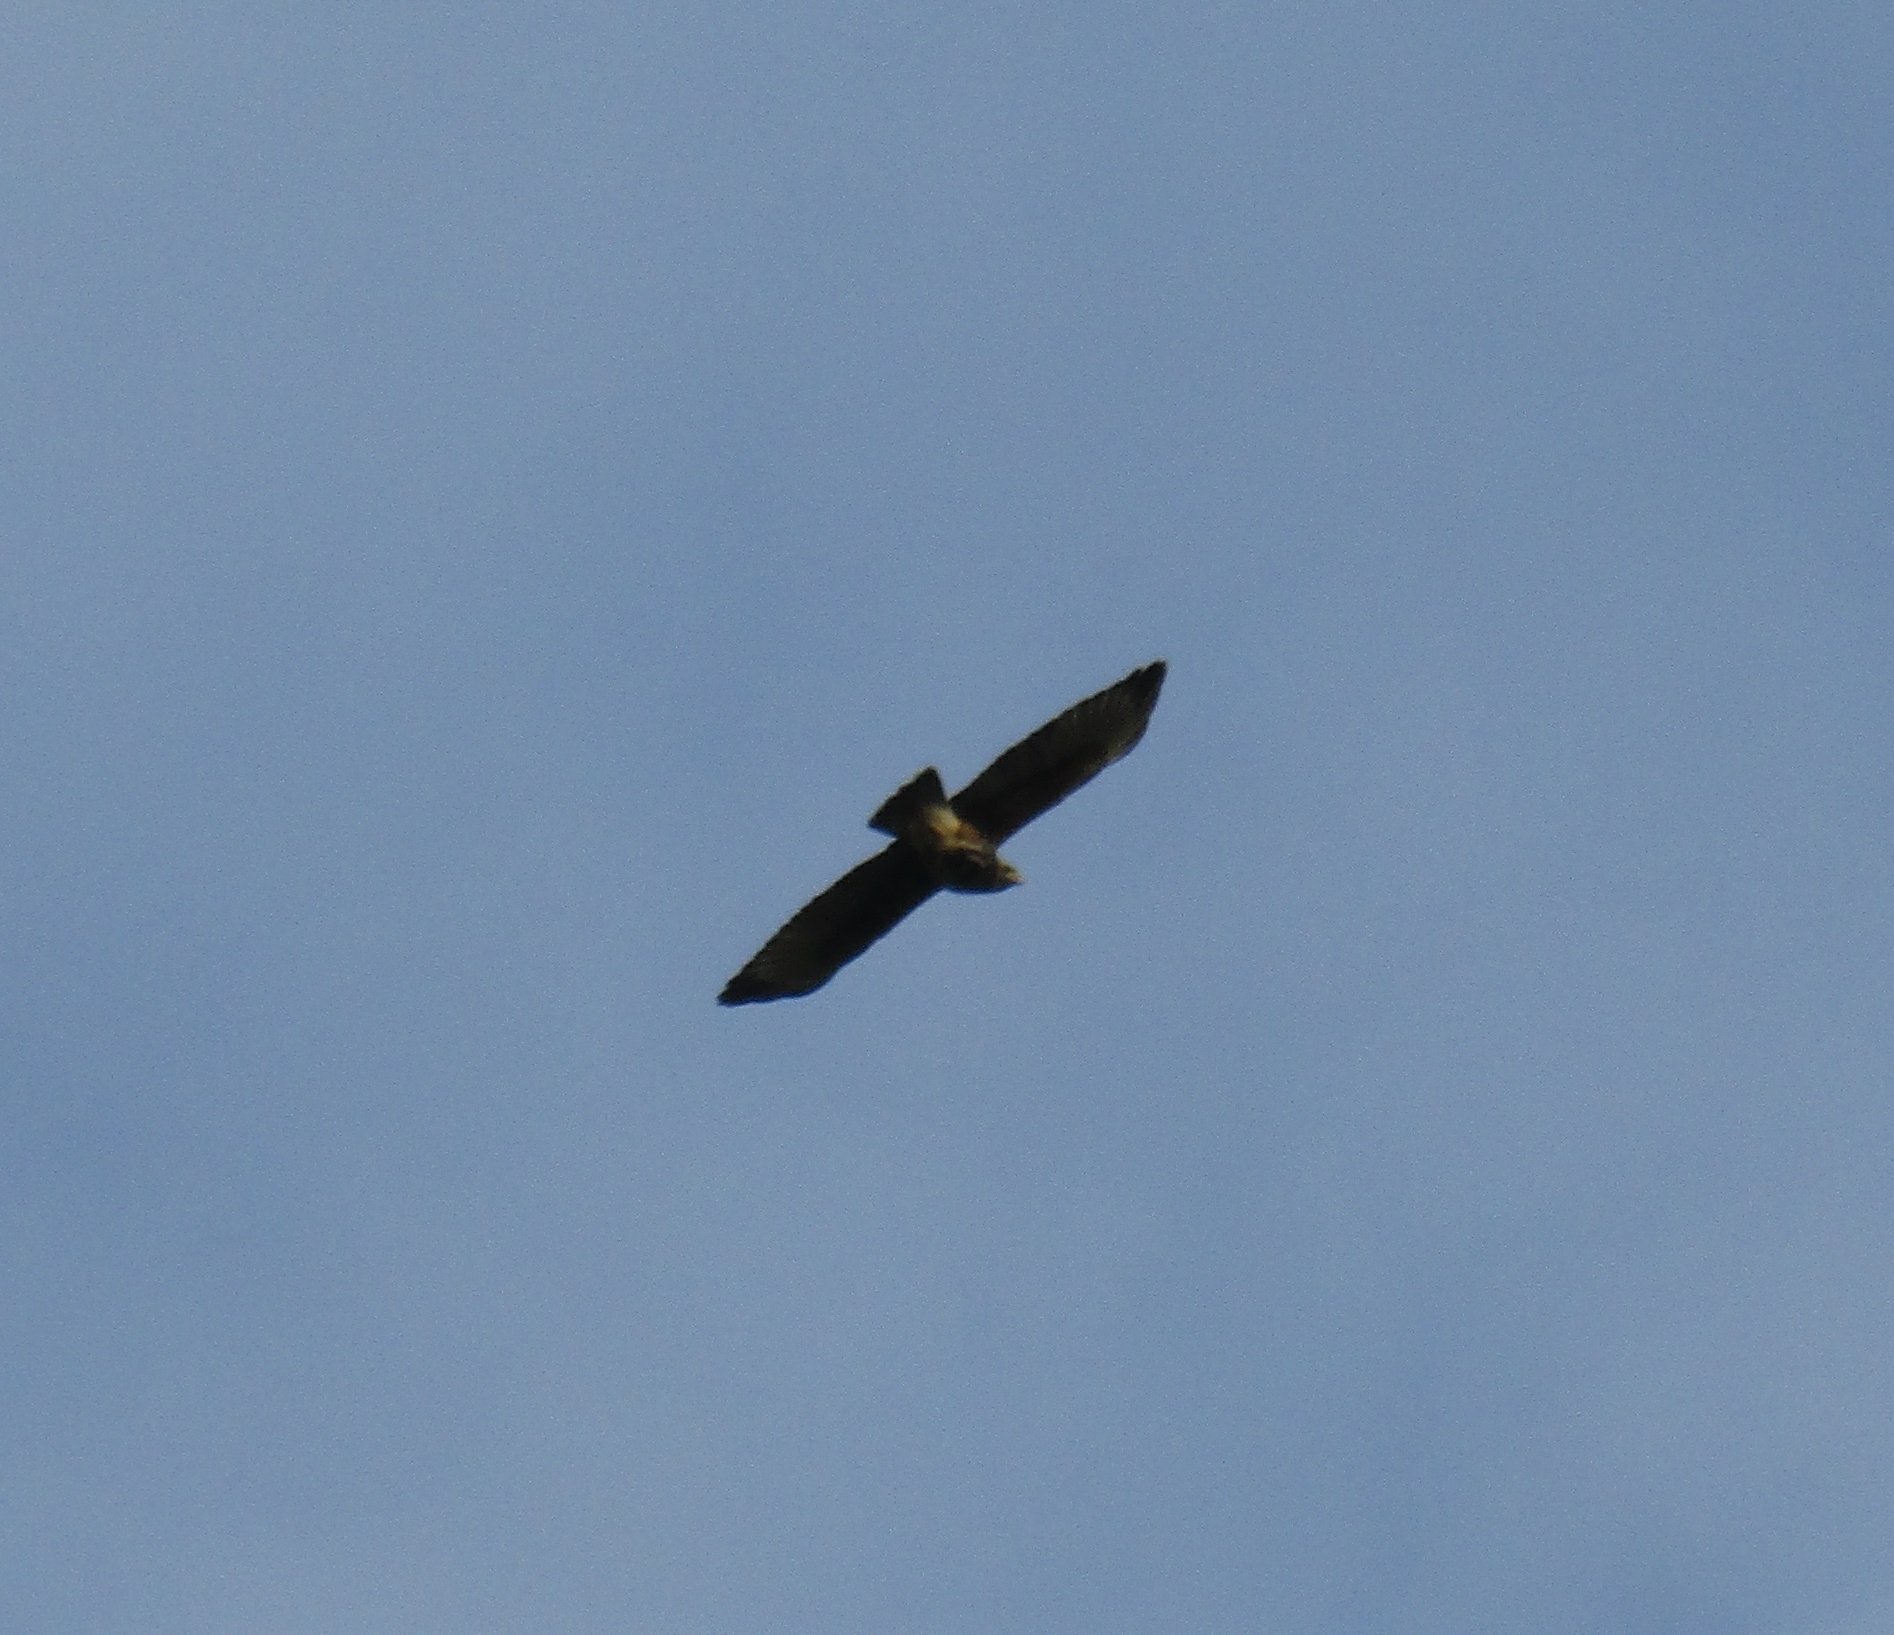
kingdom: Animalia
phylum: Chordata
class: Aves
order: Accipitriformes
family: Accipitridae
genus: Parabuteo
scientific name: Parabuteo unicinctus
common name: Harris's hawk
